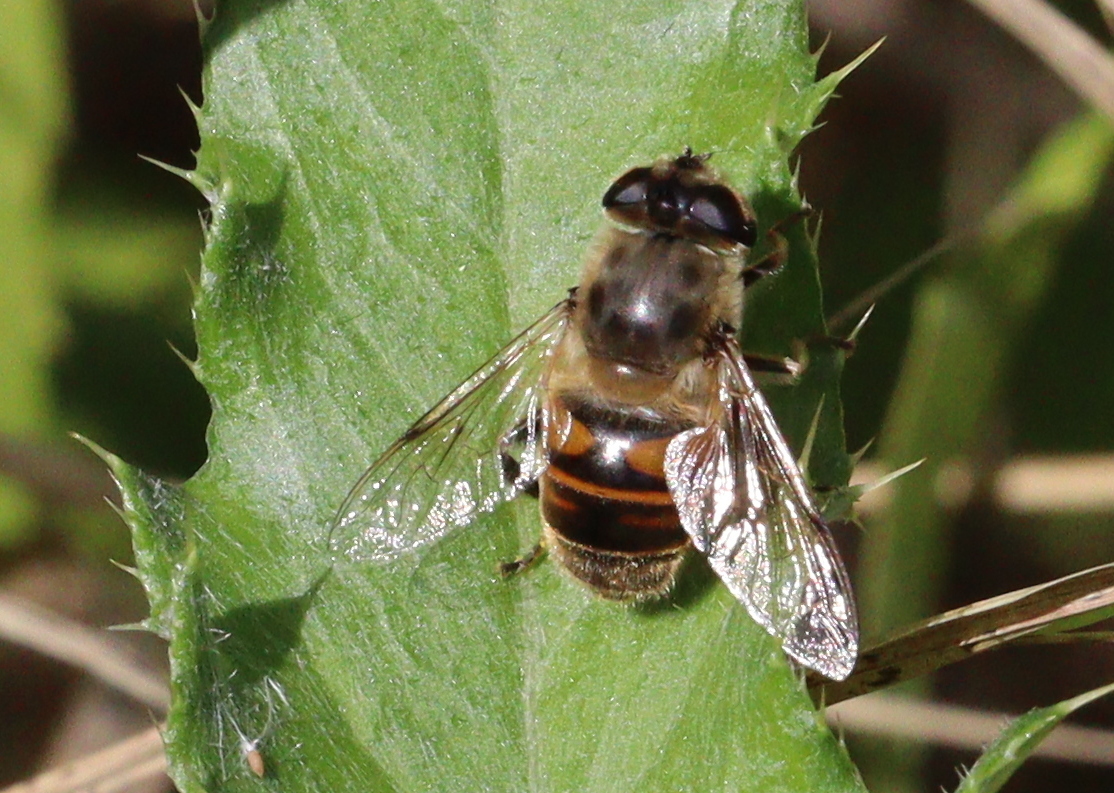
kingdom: Animalia
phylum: Arthropoda
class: Insecta
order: Diptera
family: Syrphidae
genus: Eristalis
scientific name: Eristalis tenax
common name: Drone fly
